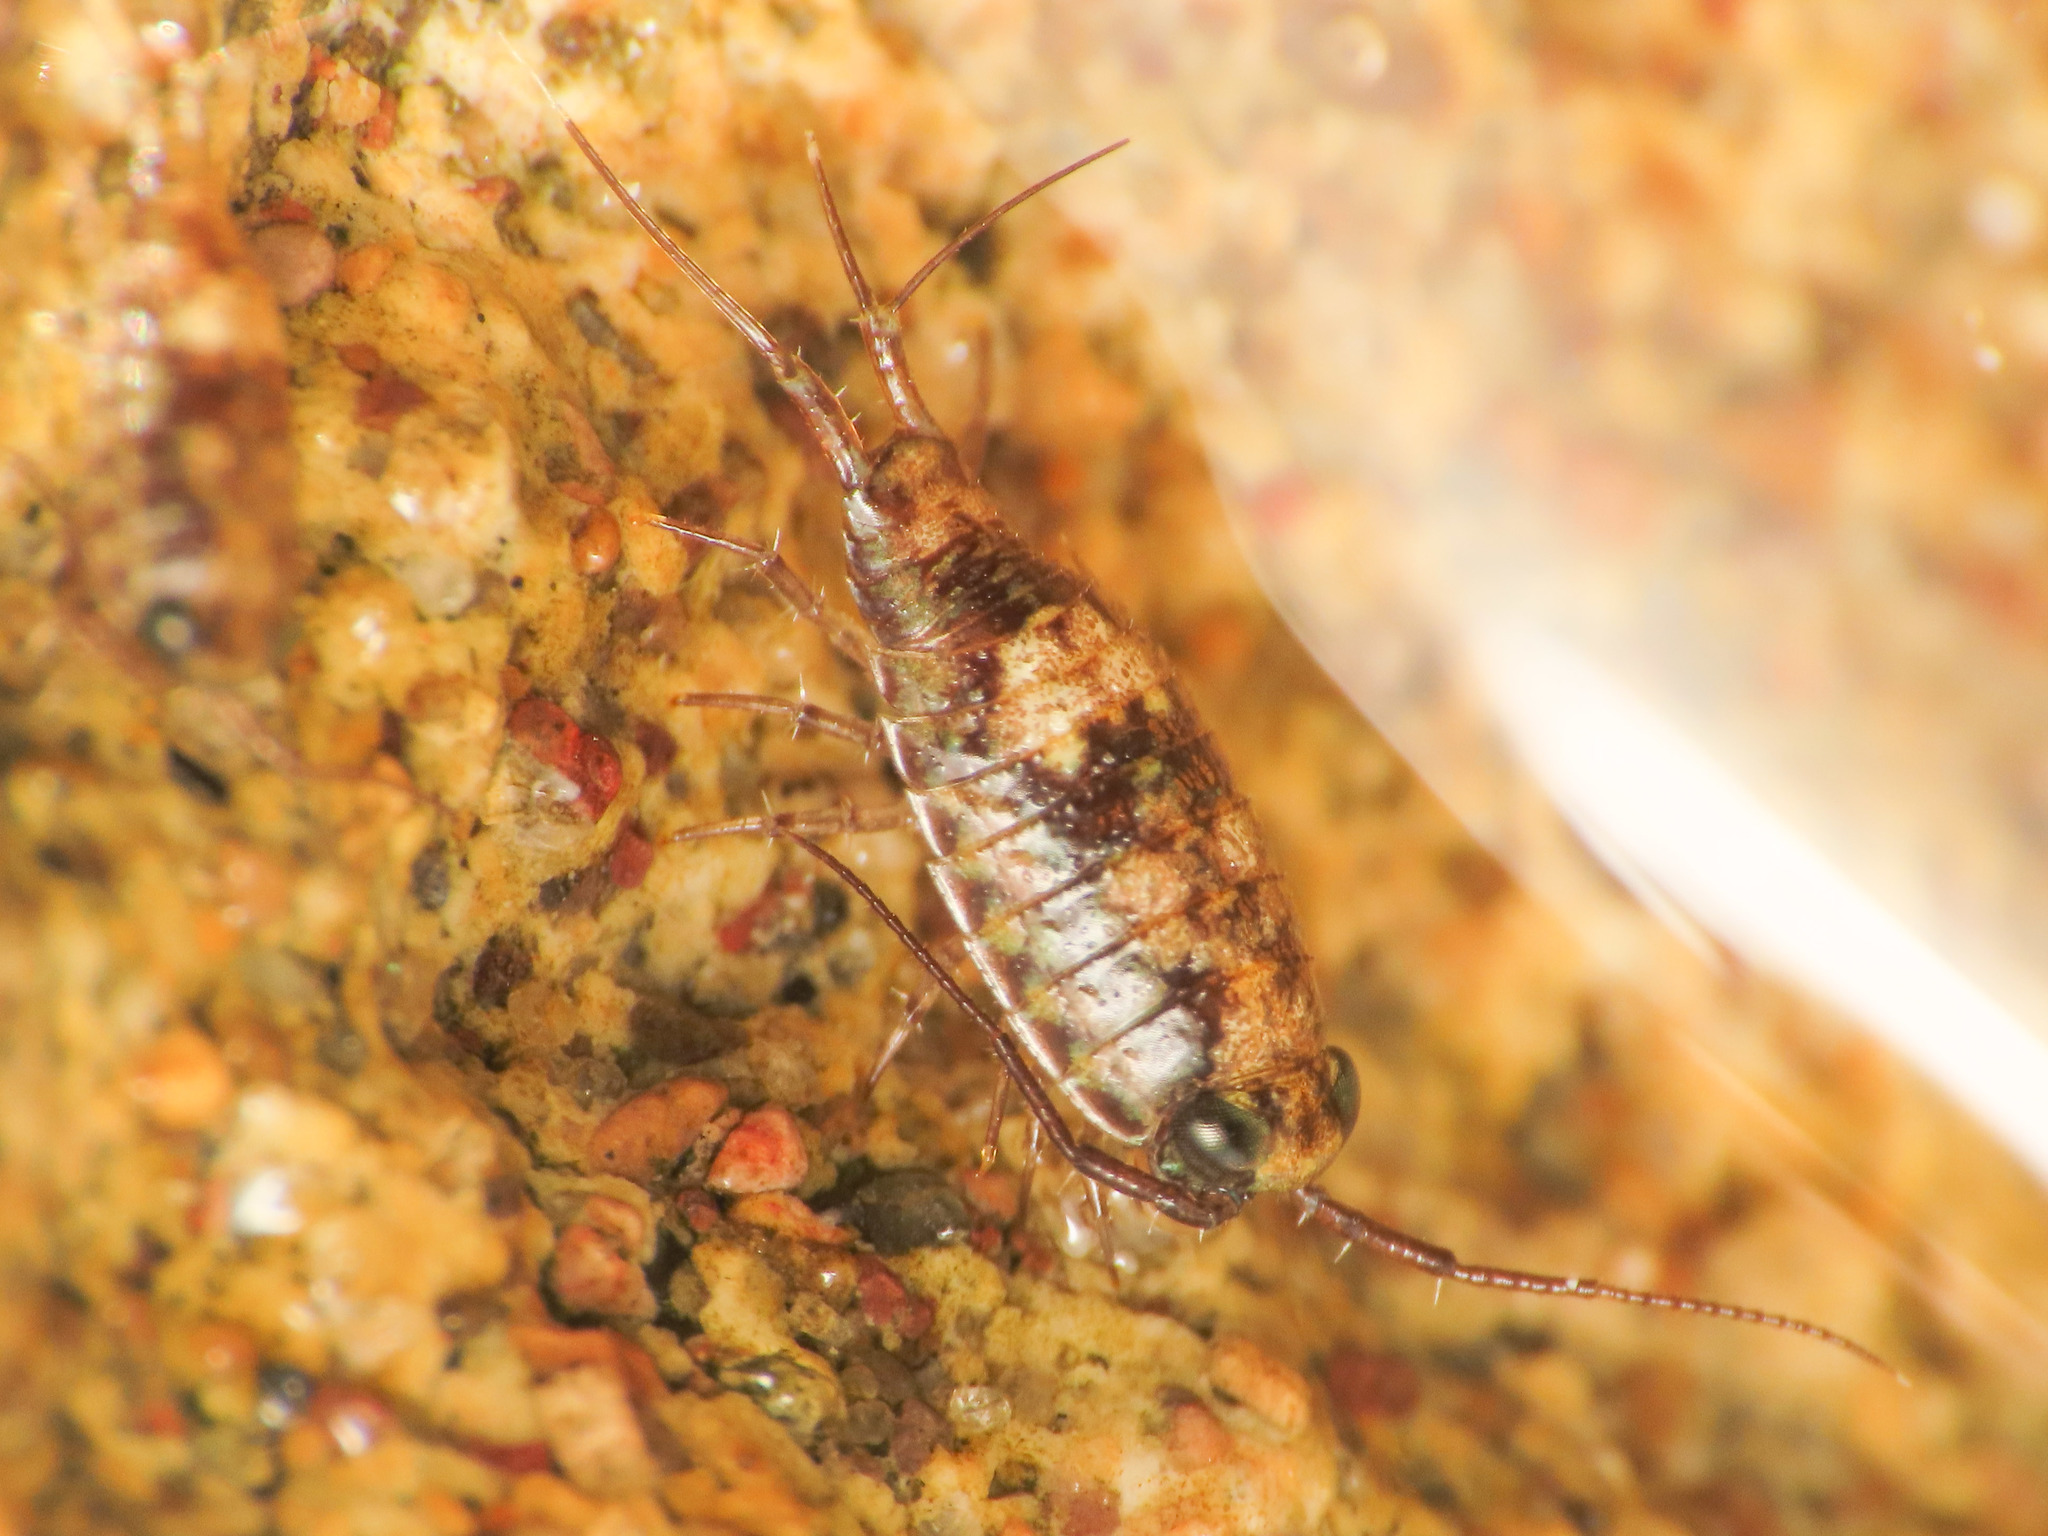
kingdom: Animalia
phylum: Arthropoda
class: Malacostraca
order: Isopoda
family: Ligiidae
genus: Ligia
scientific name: Ligia italica
